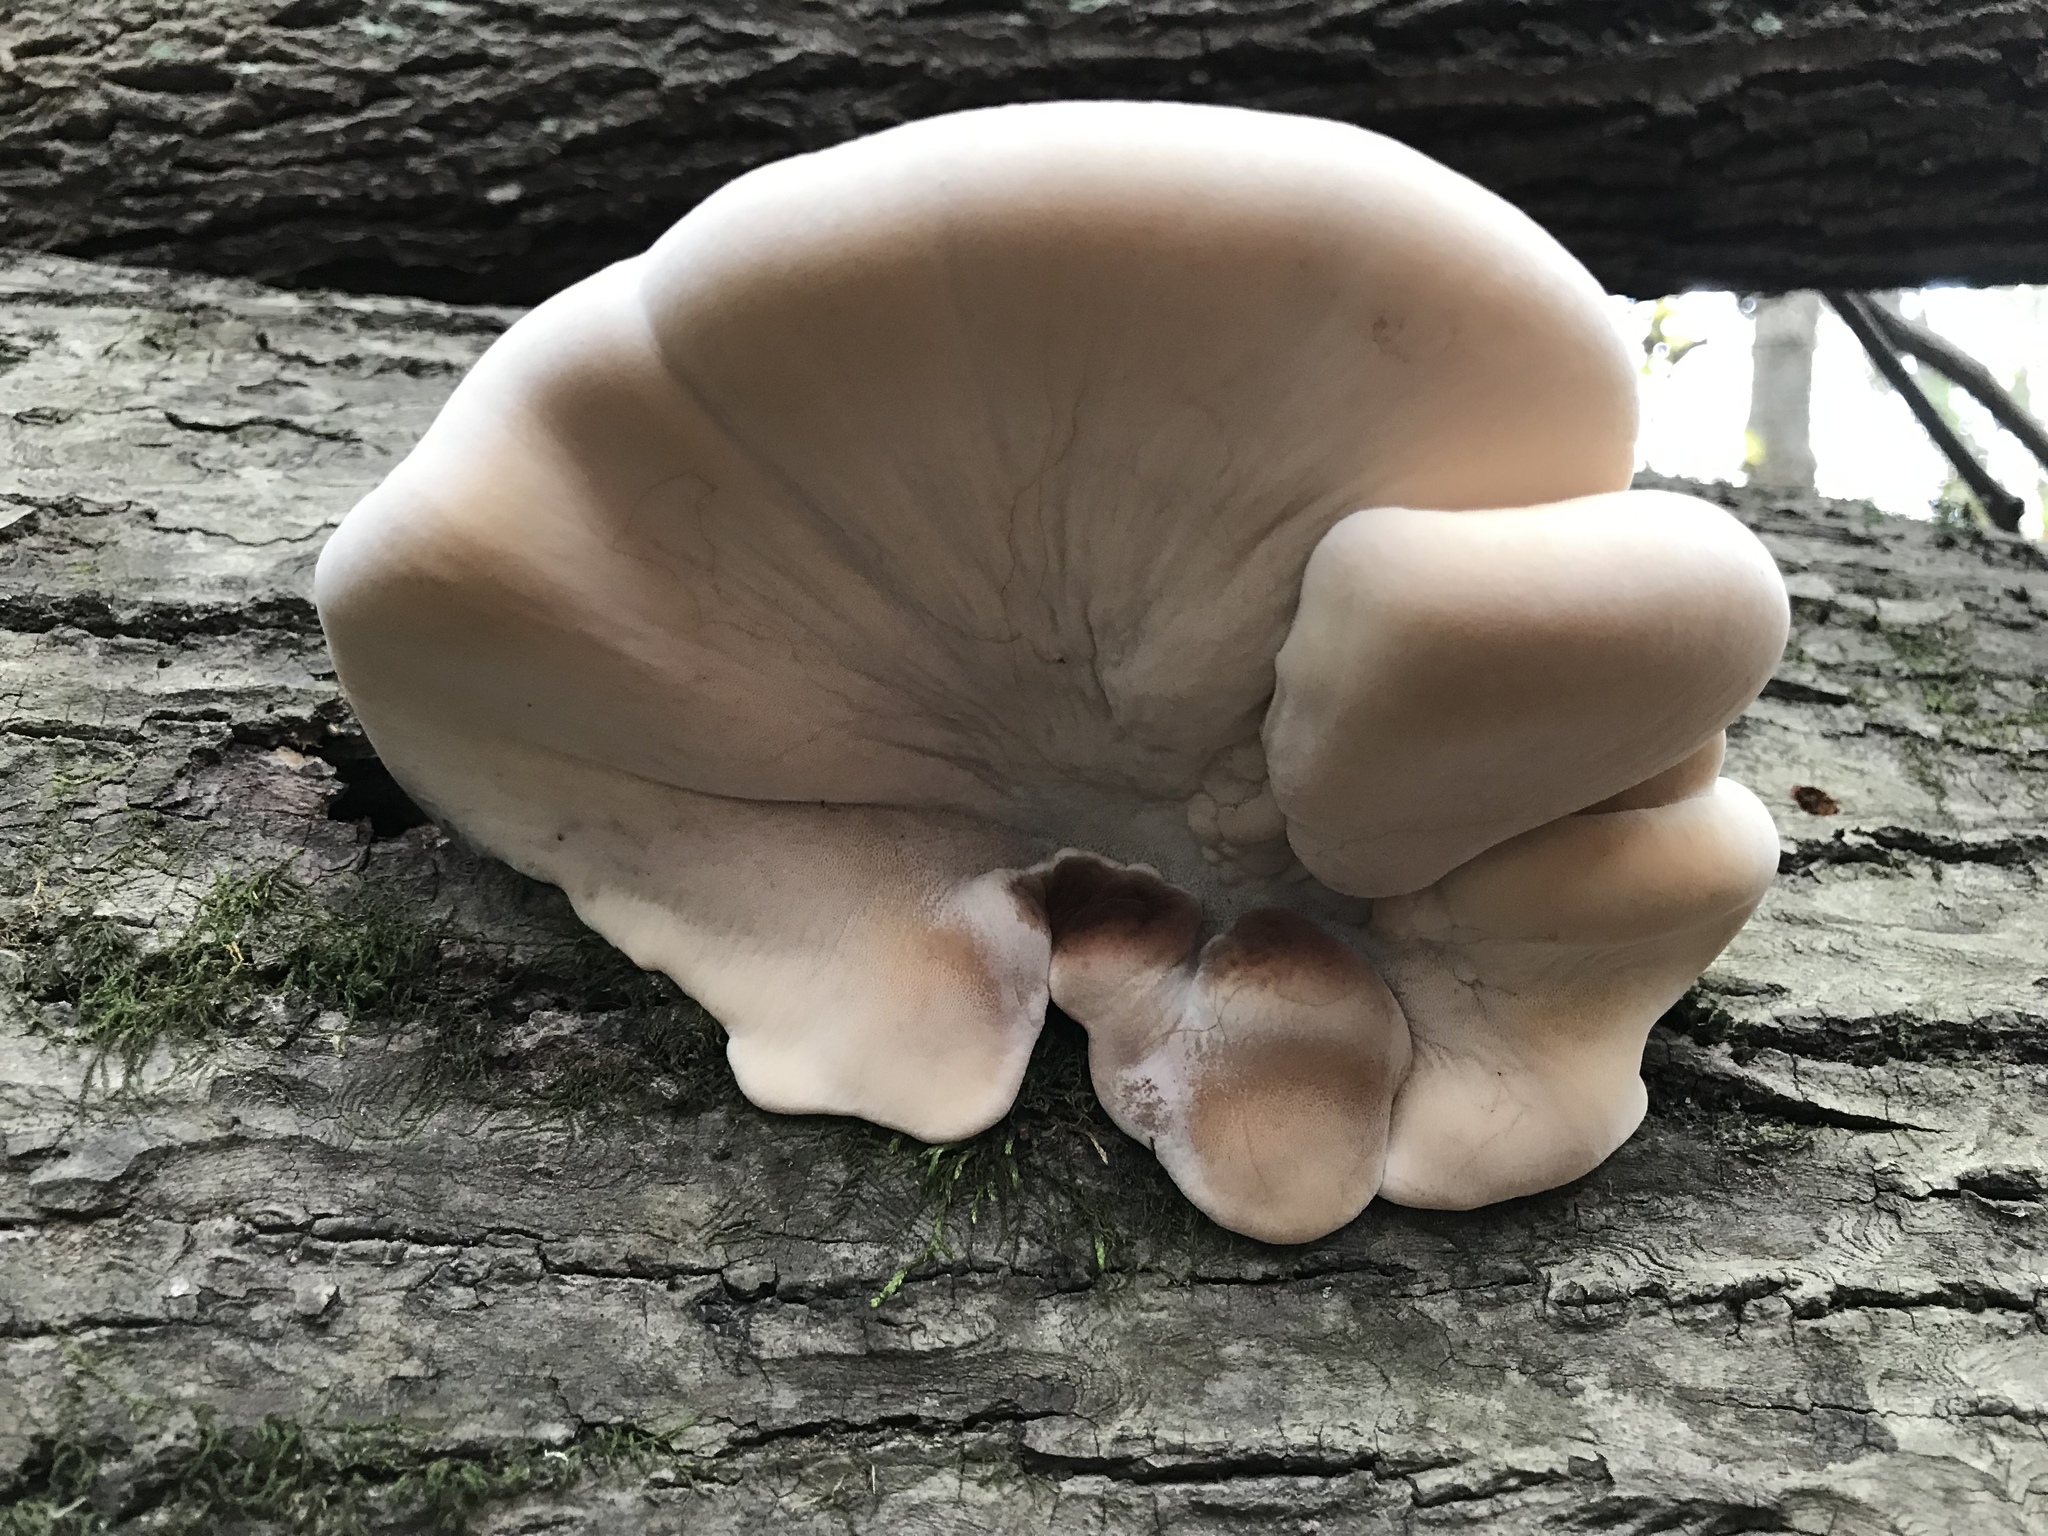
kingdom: Fungi
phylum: Basidiomycota
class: Agaricomycetes
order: Polyporales
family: Ischnodermataceae
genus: Ischnoderma
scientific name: Ischnoderma resinosum
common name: Resinous polypore
